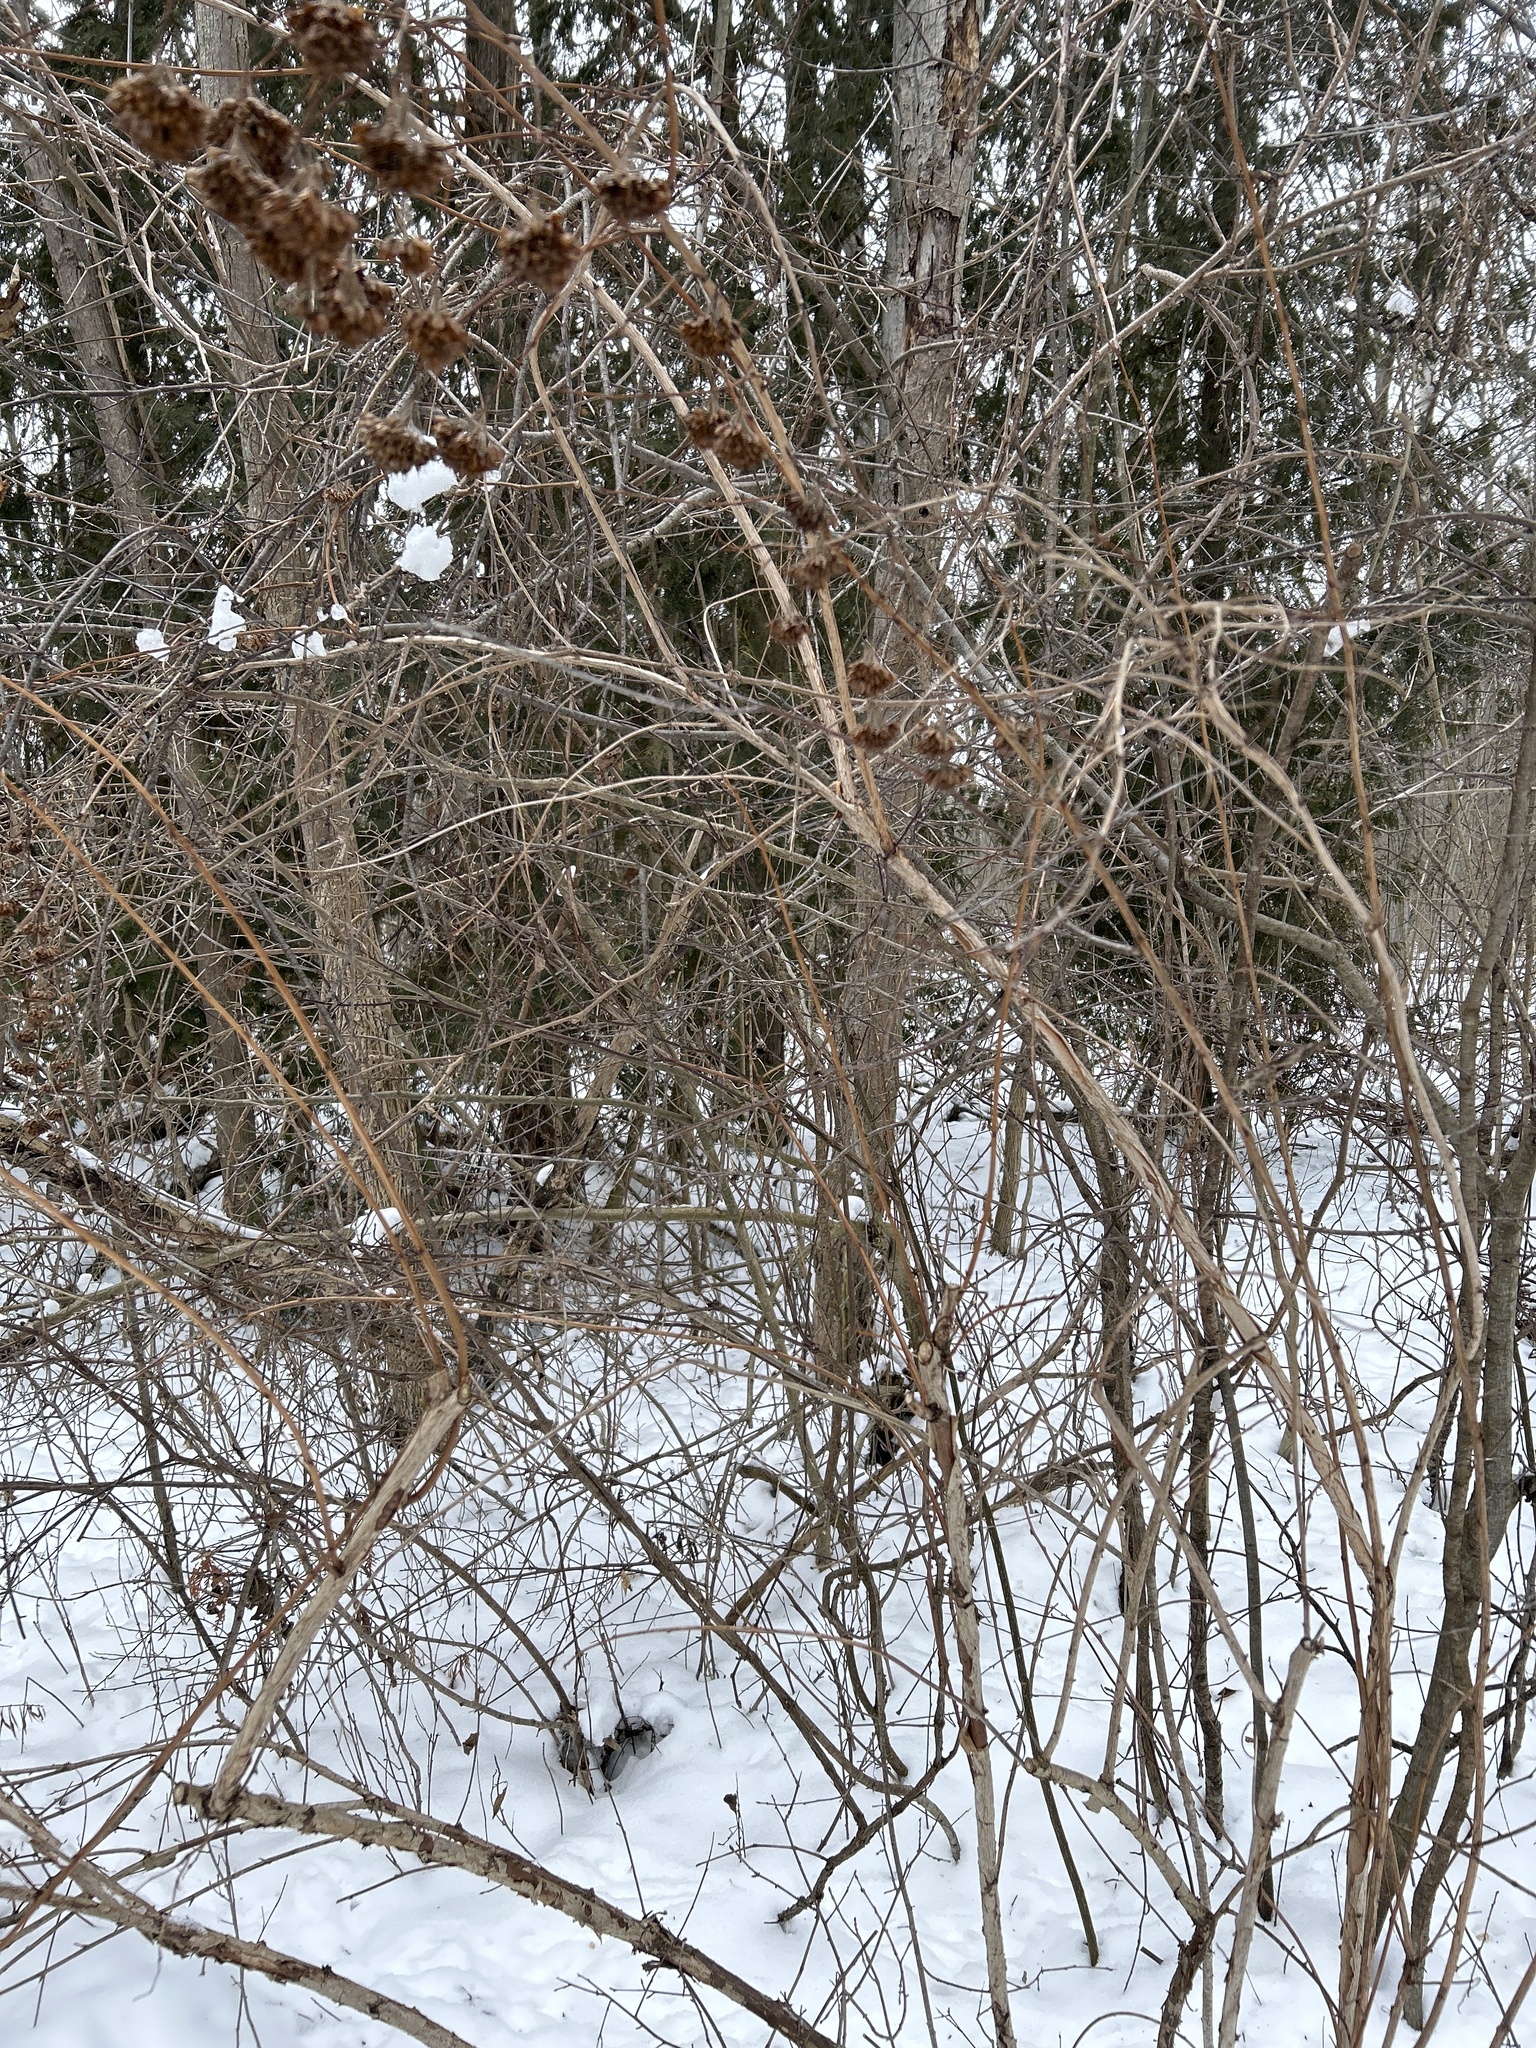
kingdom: Plantae
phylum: Tracheophyta
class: Magnoliopsida
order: Rosales
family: Rosaceae
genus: Physocarpus
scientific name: Physocarpus opulifolius
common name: Ninebark
